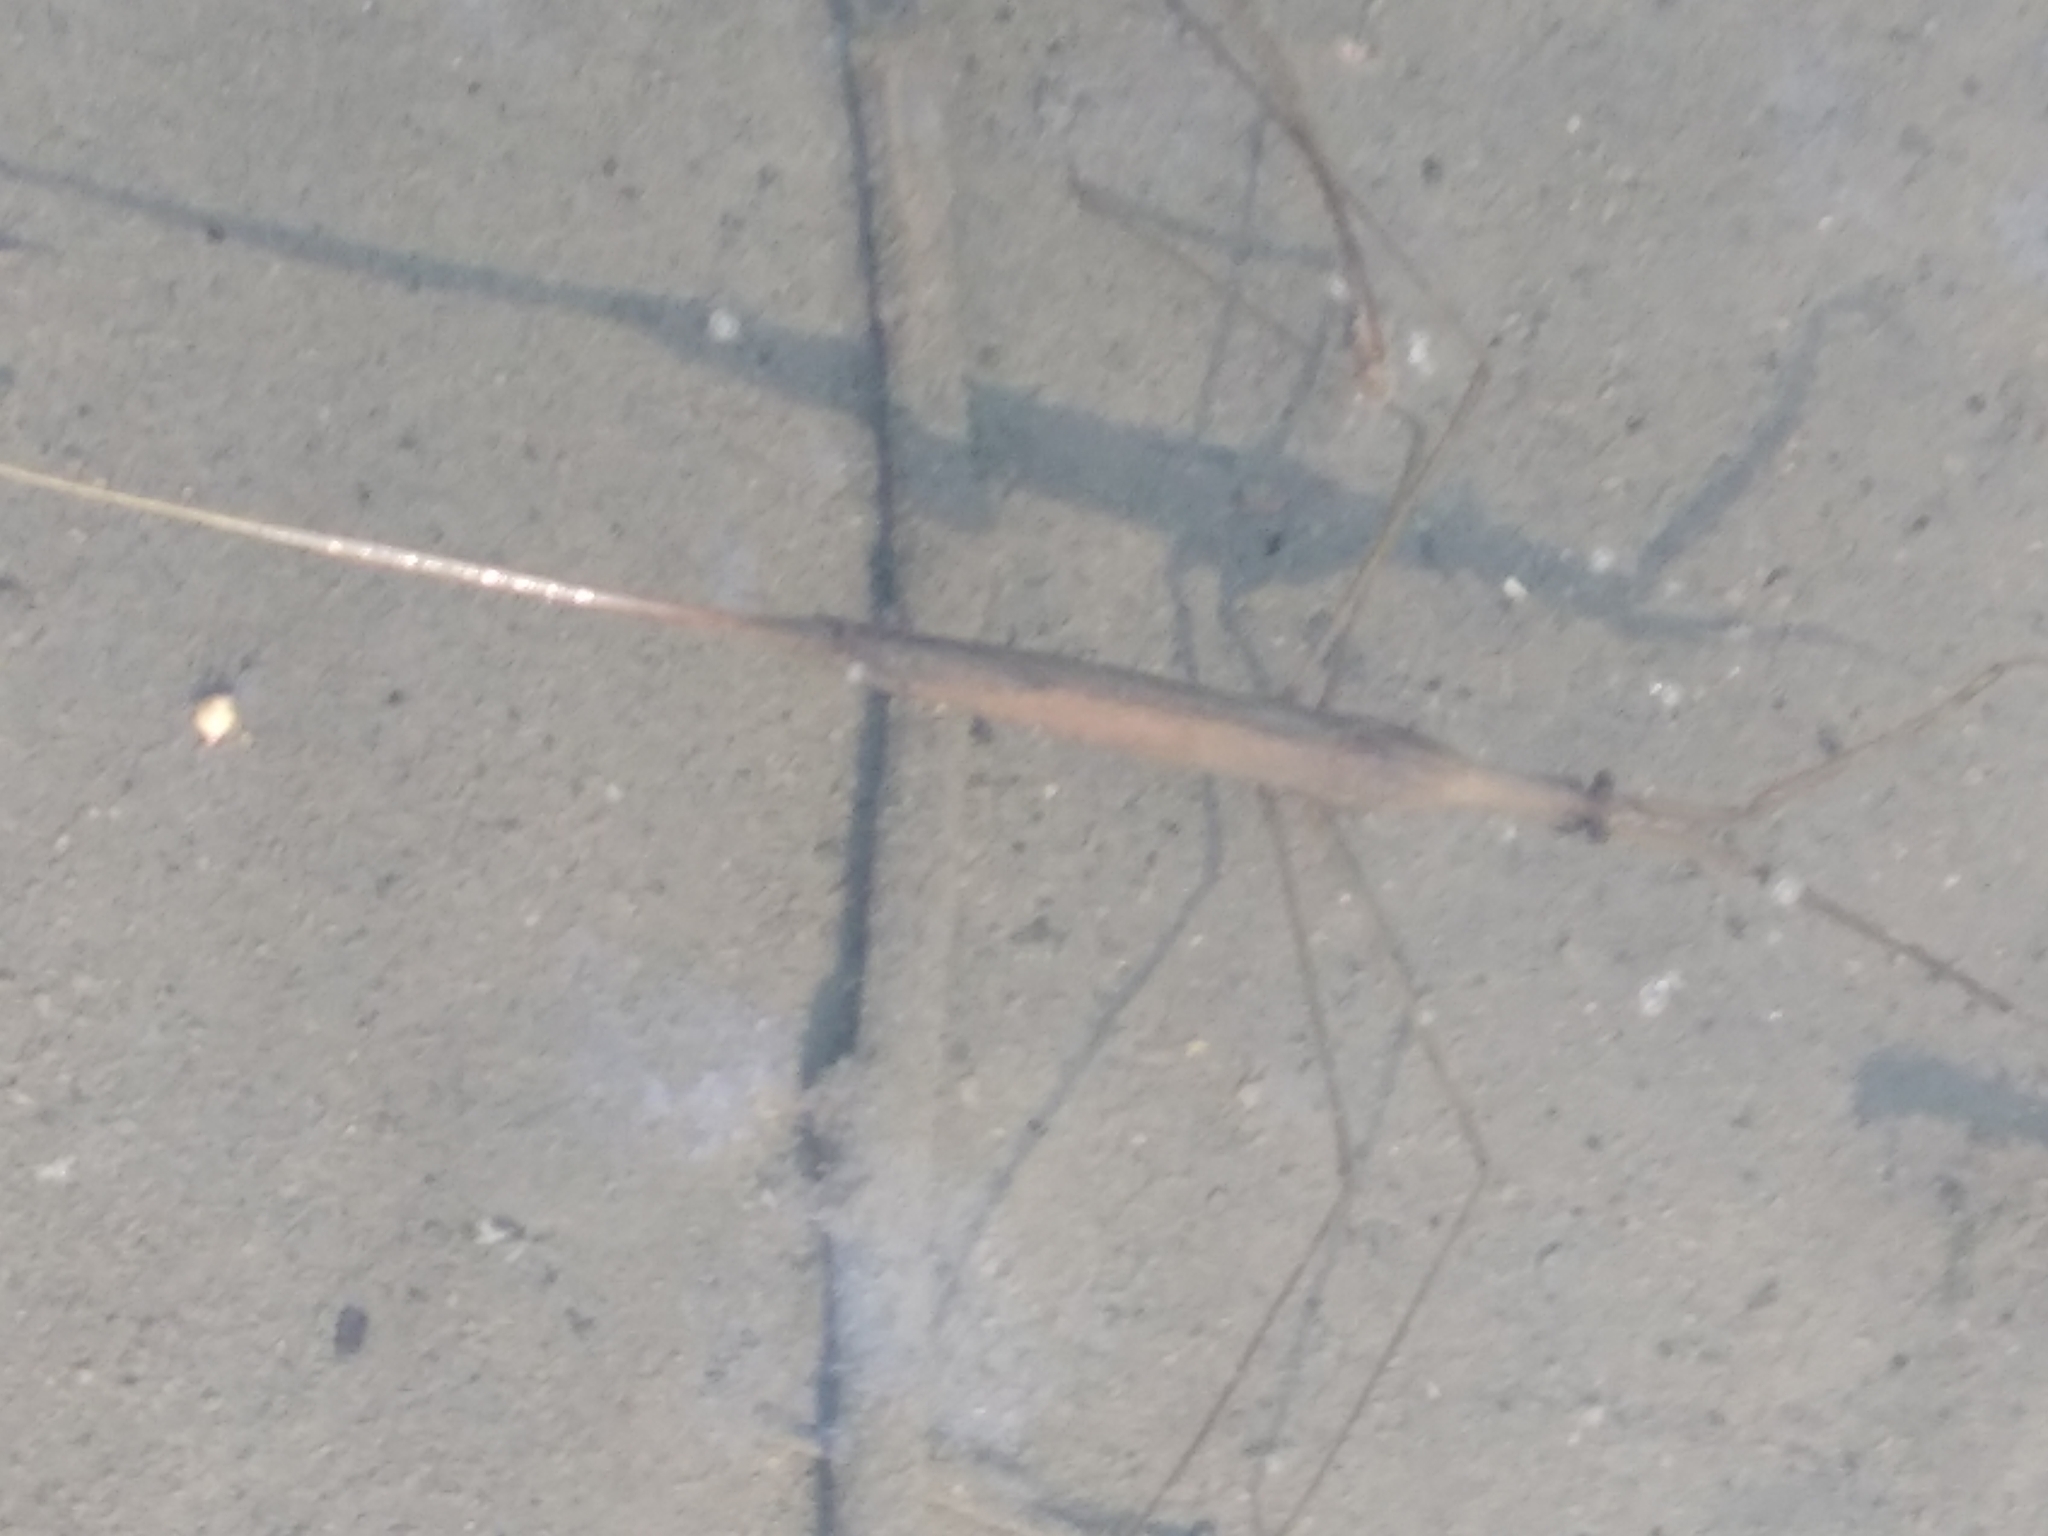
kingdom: Animalia
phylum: Arthropoda
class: Insecta
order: Hemiptera
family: Nepidae
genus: Ranatra
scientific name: Ranatra linearis
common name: Water stick insect
